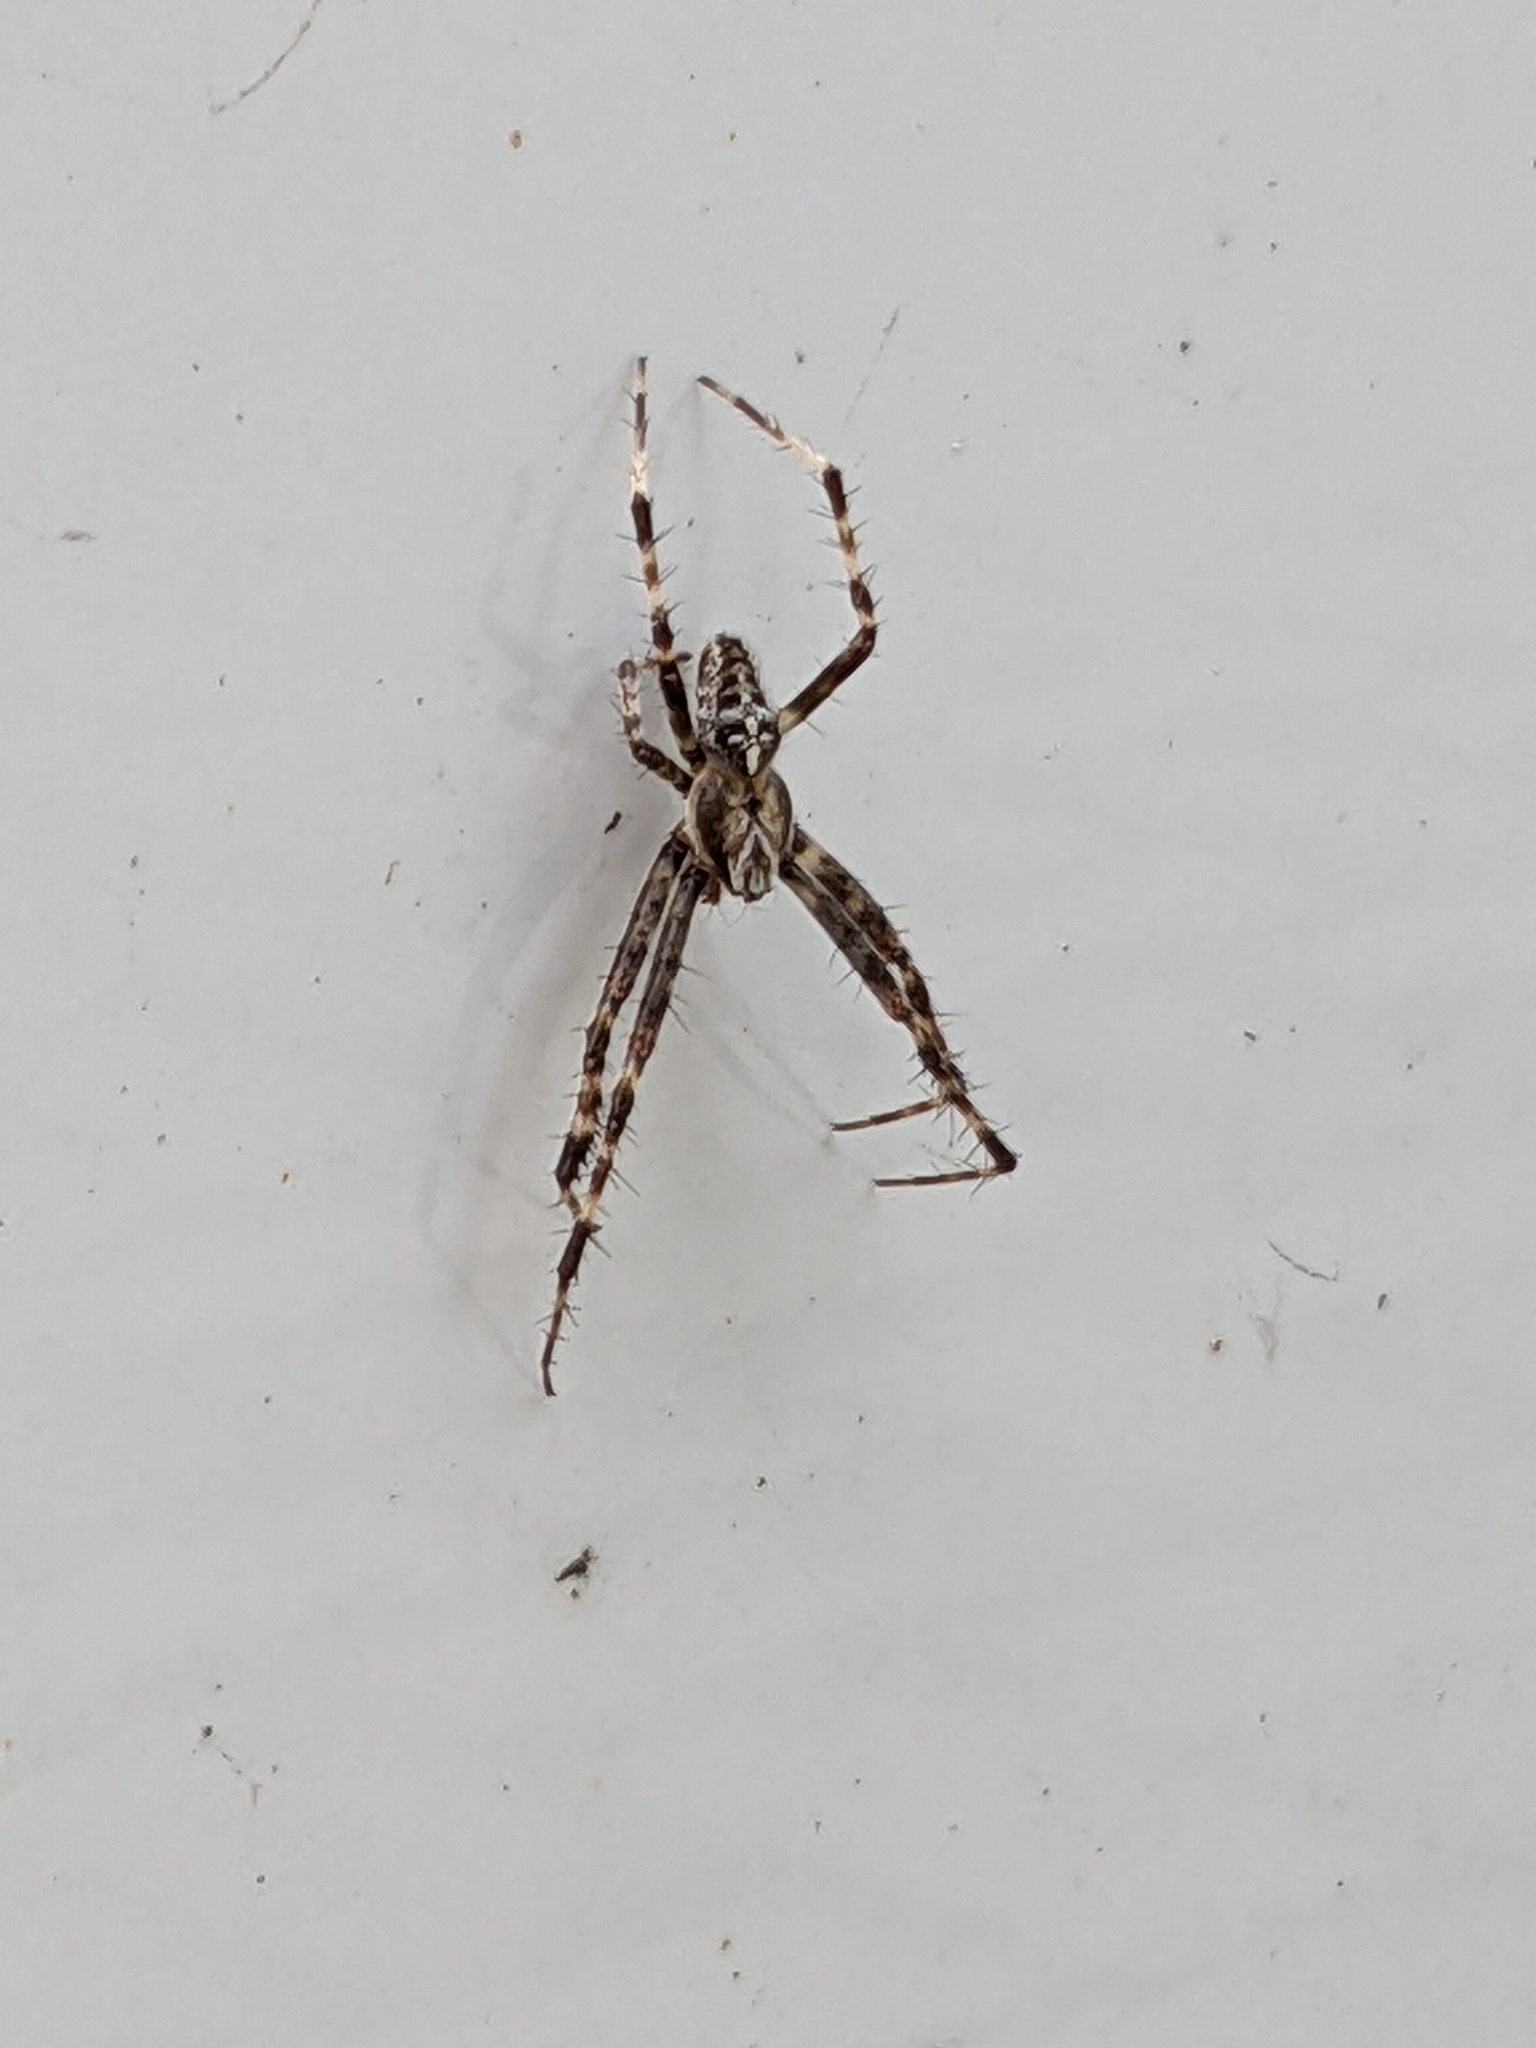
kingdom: Animalia
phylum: Arthropoda
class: Arachnida
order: Araneae
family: Araneidae
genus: Araneus
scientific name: Araneus diadematus
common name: Cross orbweaver
